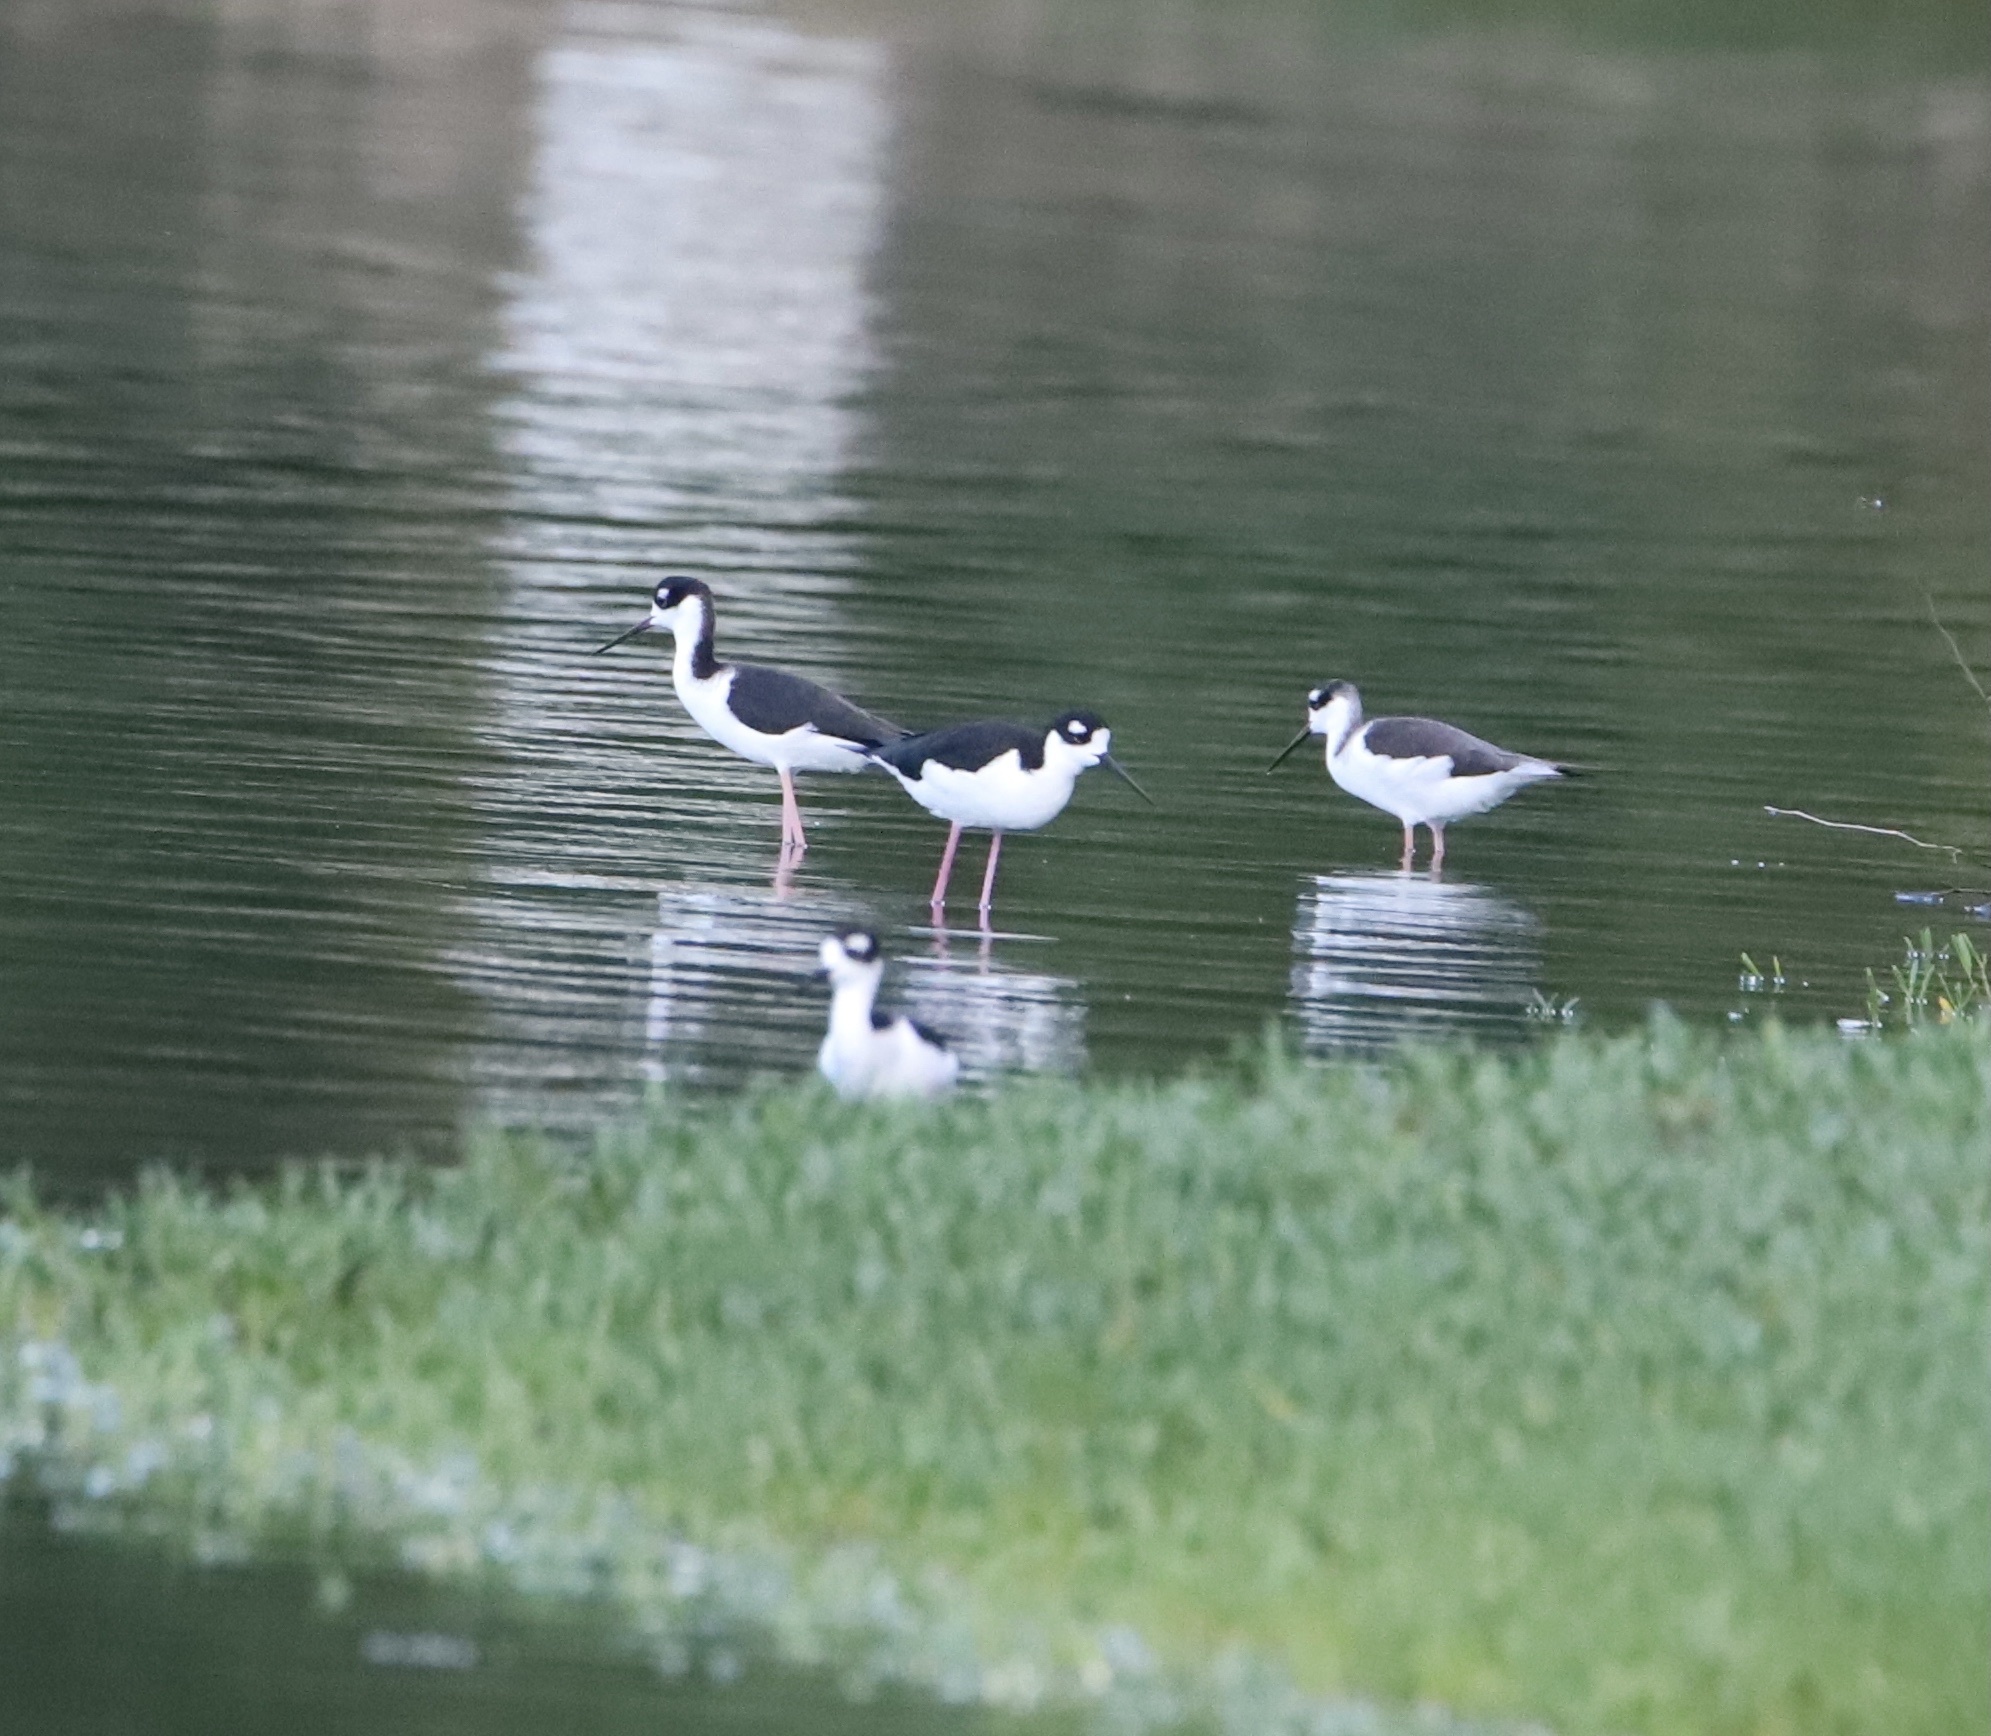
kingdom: Animalia
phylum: Chordata
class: Aves
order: Charadriiformes
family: Recurvirostridae
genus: Himantopus
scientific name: Himantopus mexicanus
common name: Black-necked stilt
